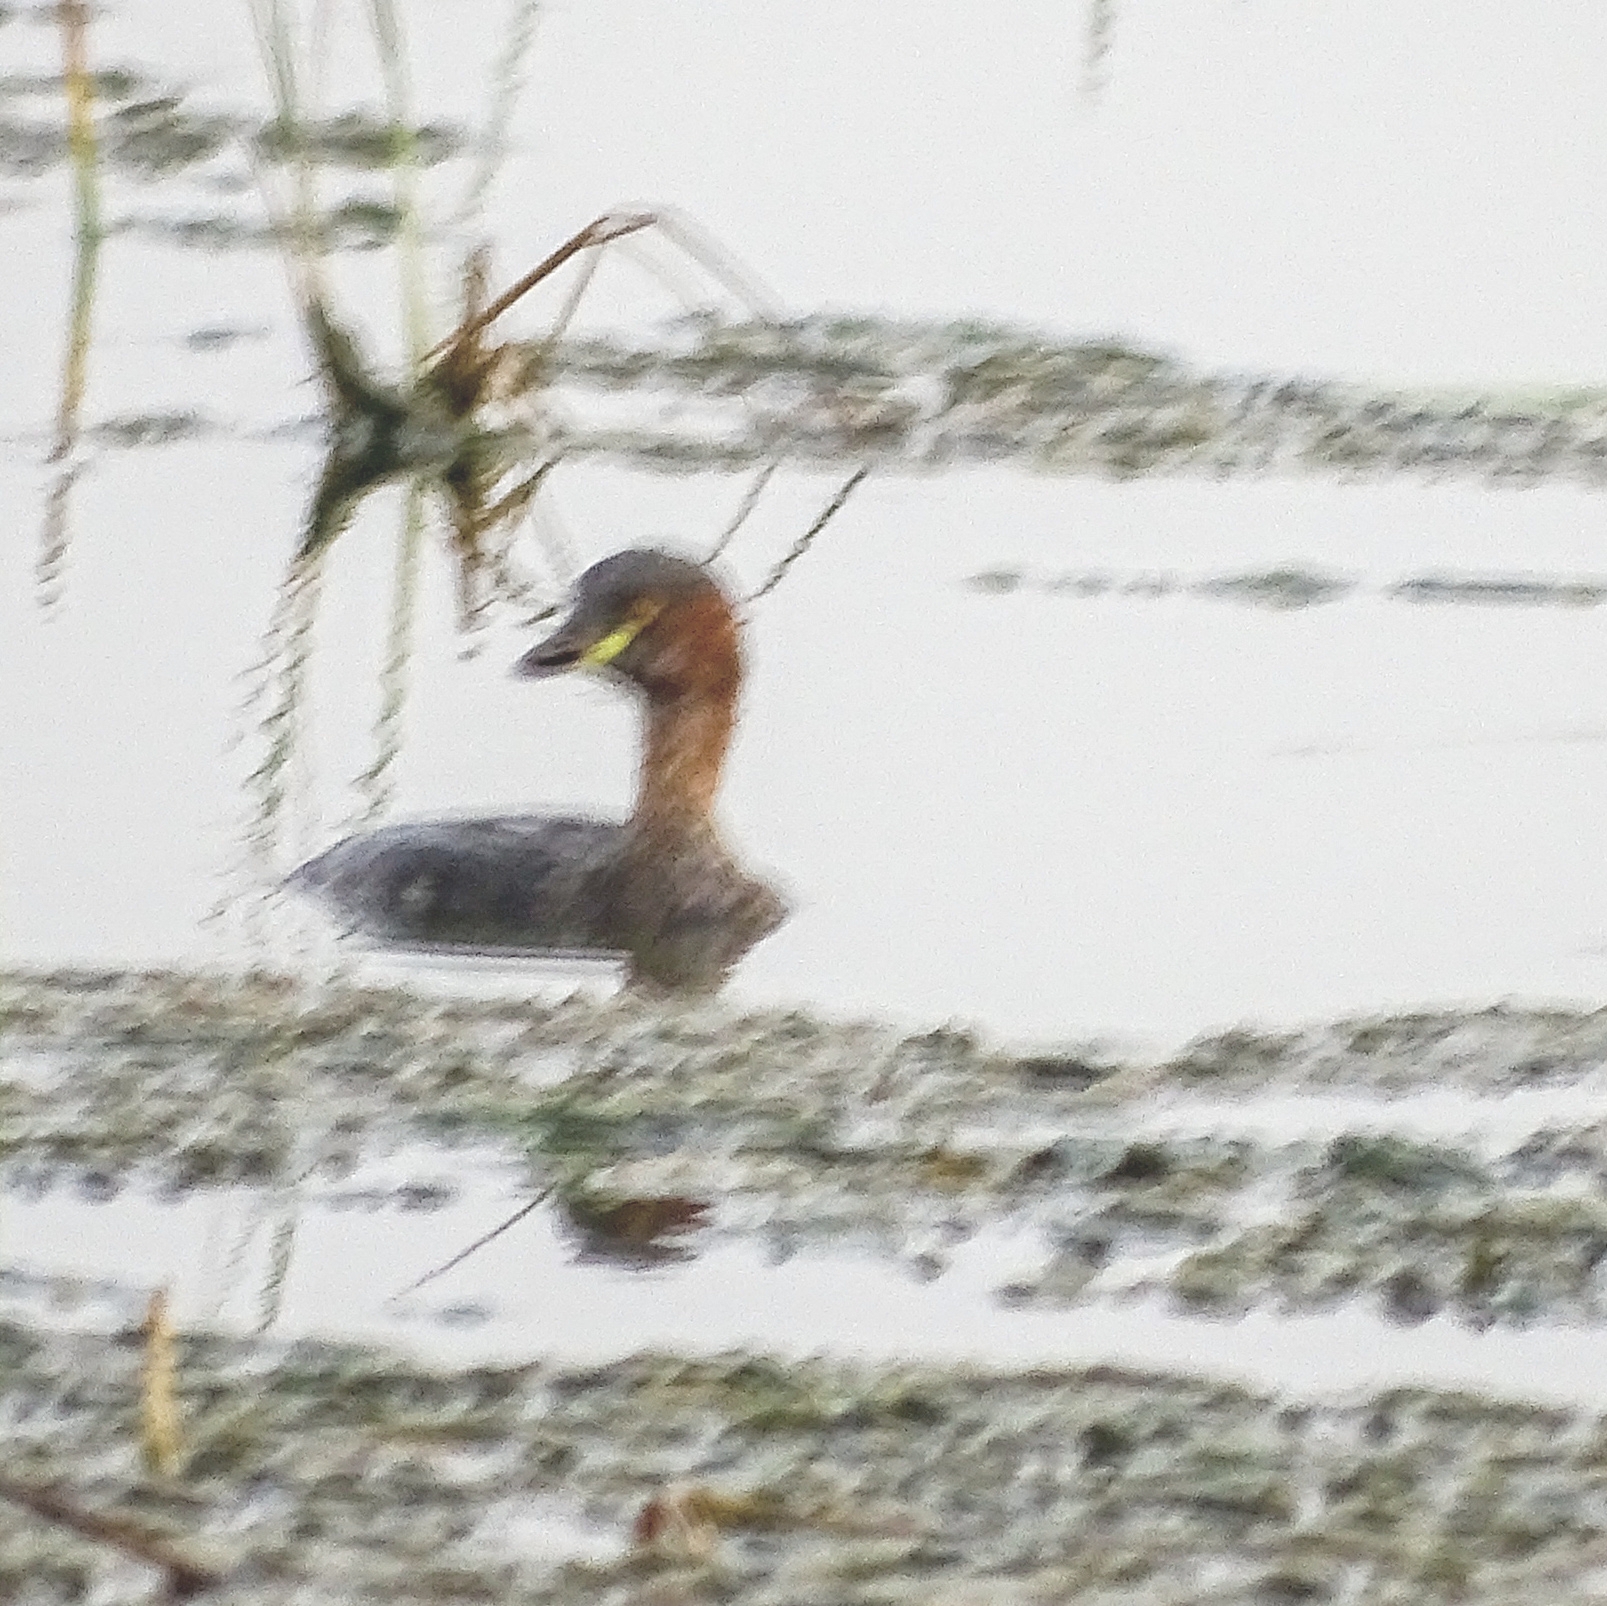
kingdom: Animalia
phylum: Chordata
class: Aves
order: Podicipediformes
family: Podicipedidae
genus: Tachybaptus
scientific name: Tachybaptus ruficollis
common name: Little grebe
